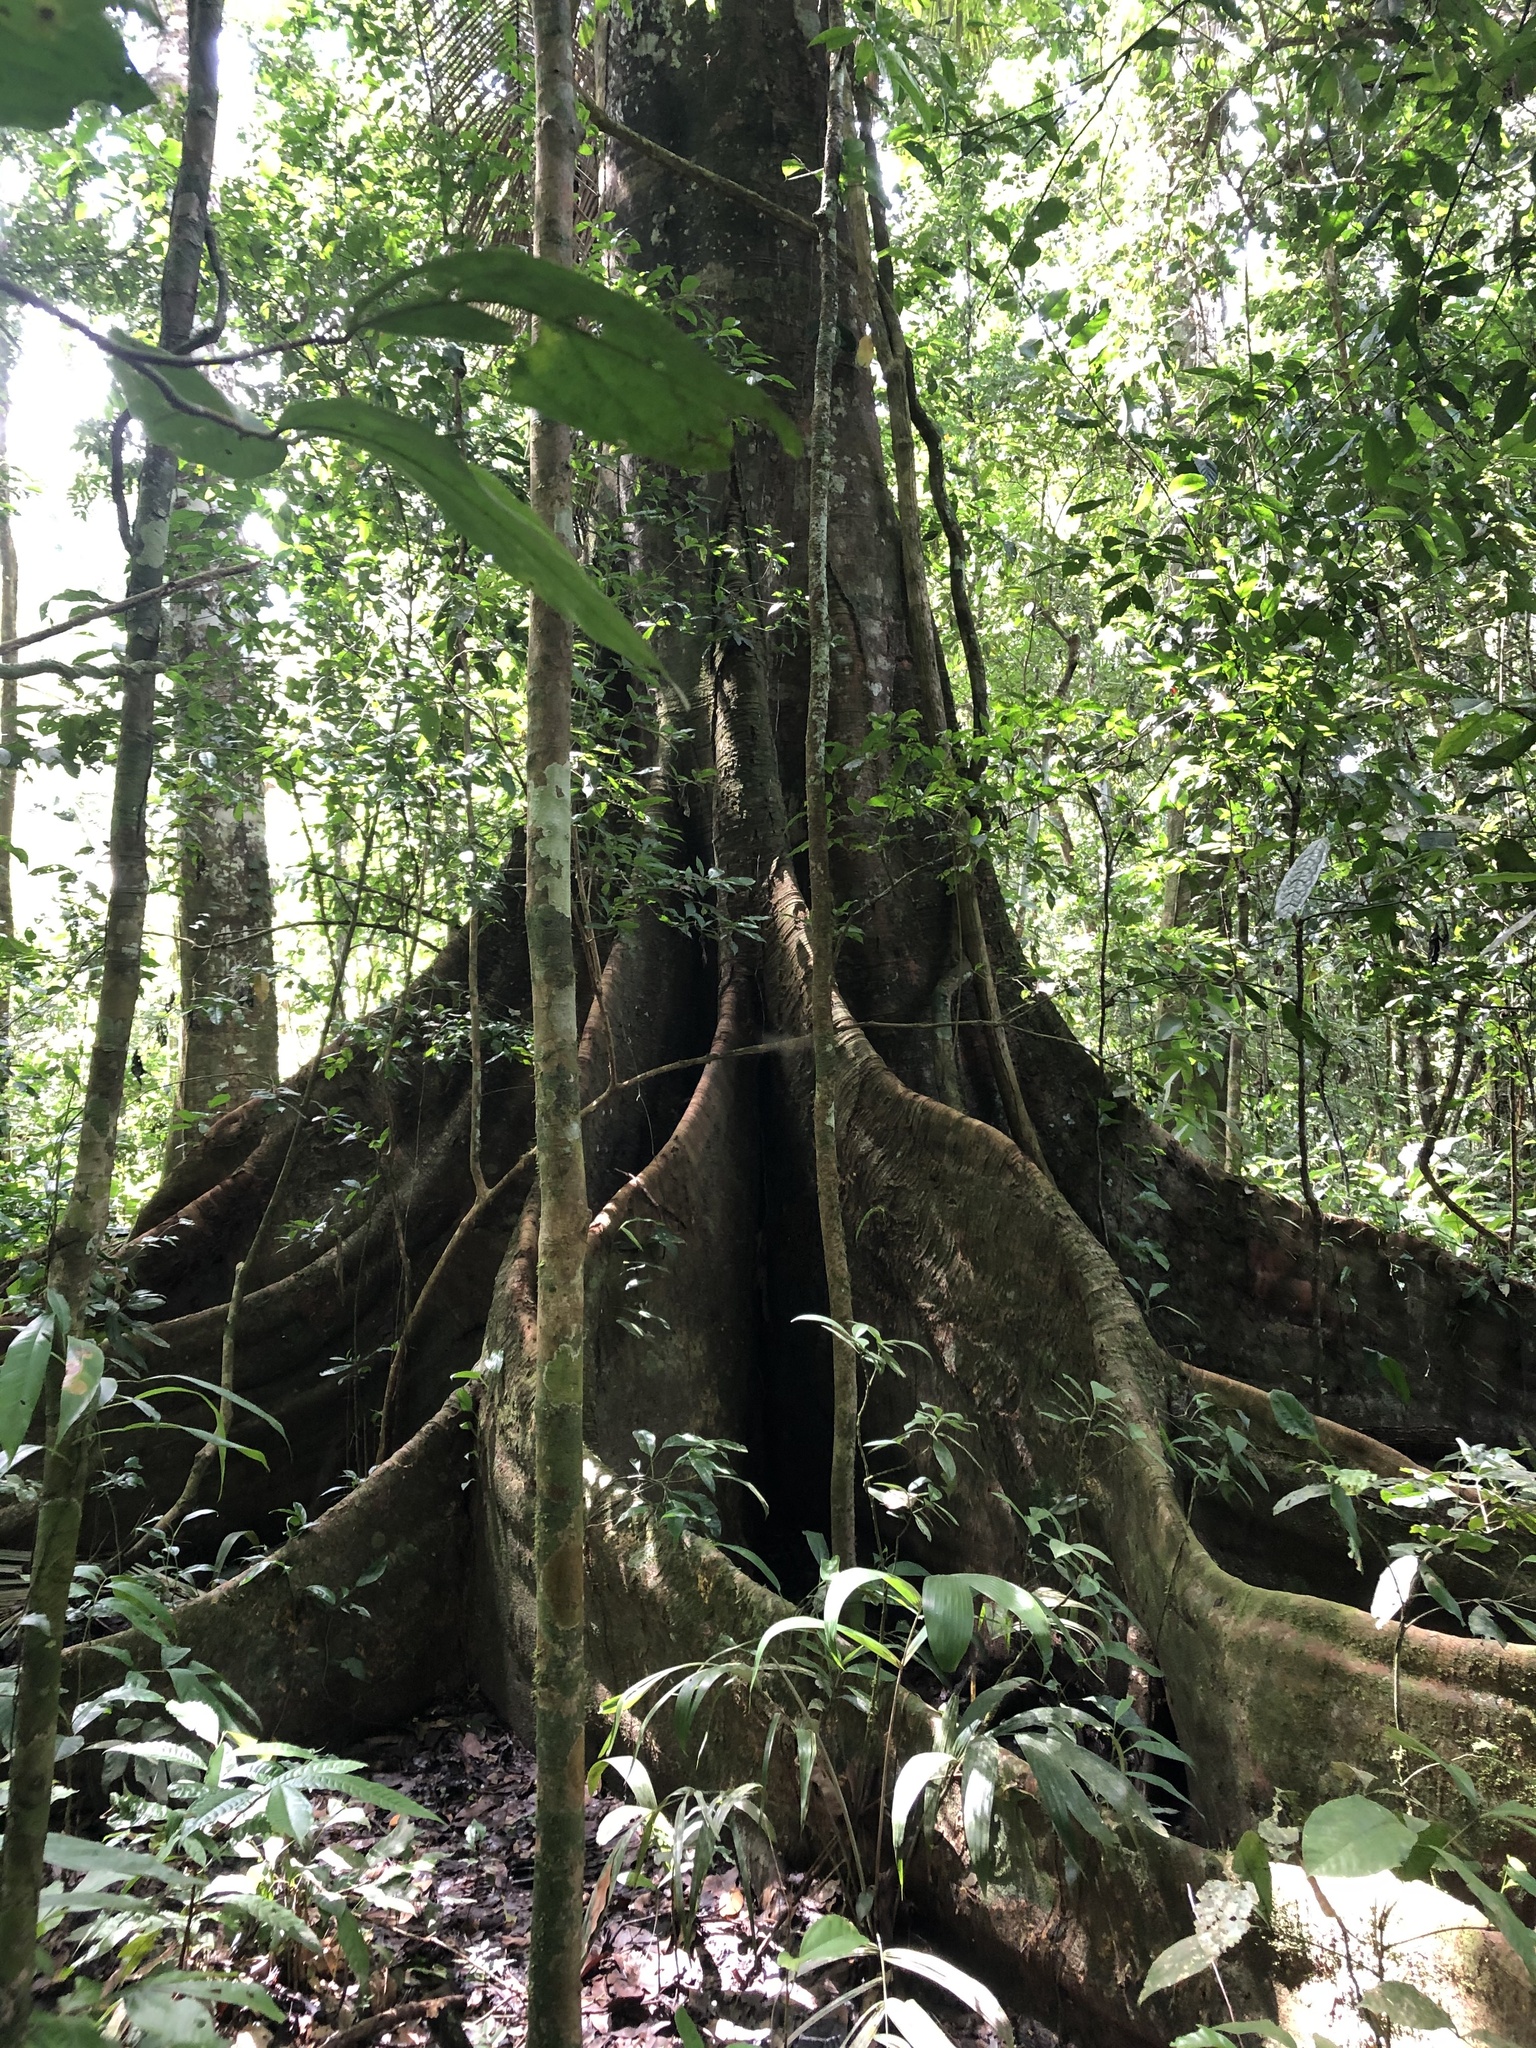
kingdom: Plantae
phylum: Tracheophyta
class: Magnoliopsida
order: Malvales
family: Malvaceae
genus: Ceiba
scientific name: Ceiba pentandra
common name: Kapok
